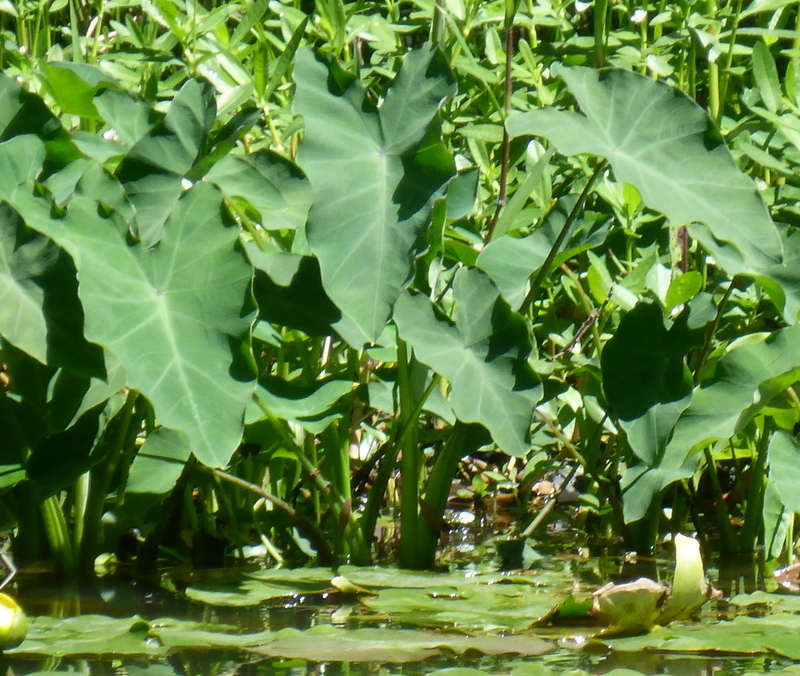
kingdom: Plantae
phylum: Tracheophyta
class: Liliopsida
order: Alismatales
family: Araceae
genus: Colocasia
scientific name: Colocasia esculenta
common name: Taro
